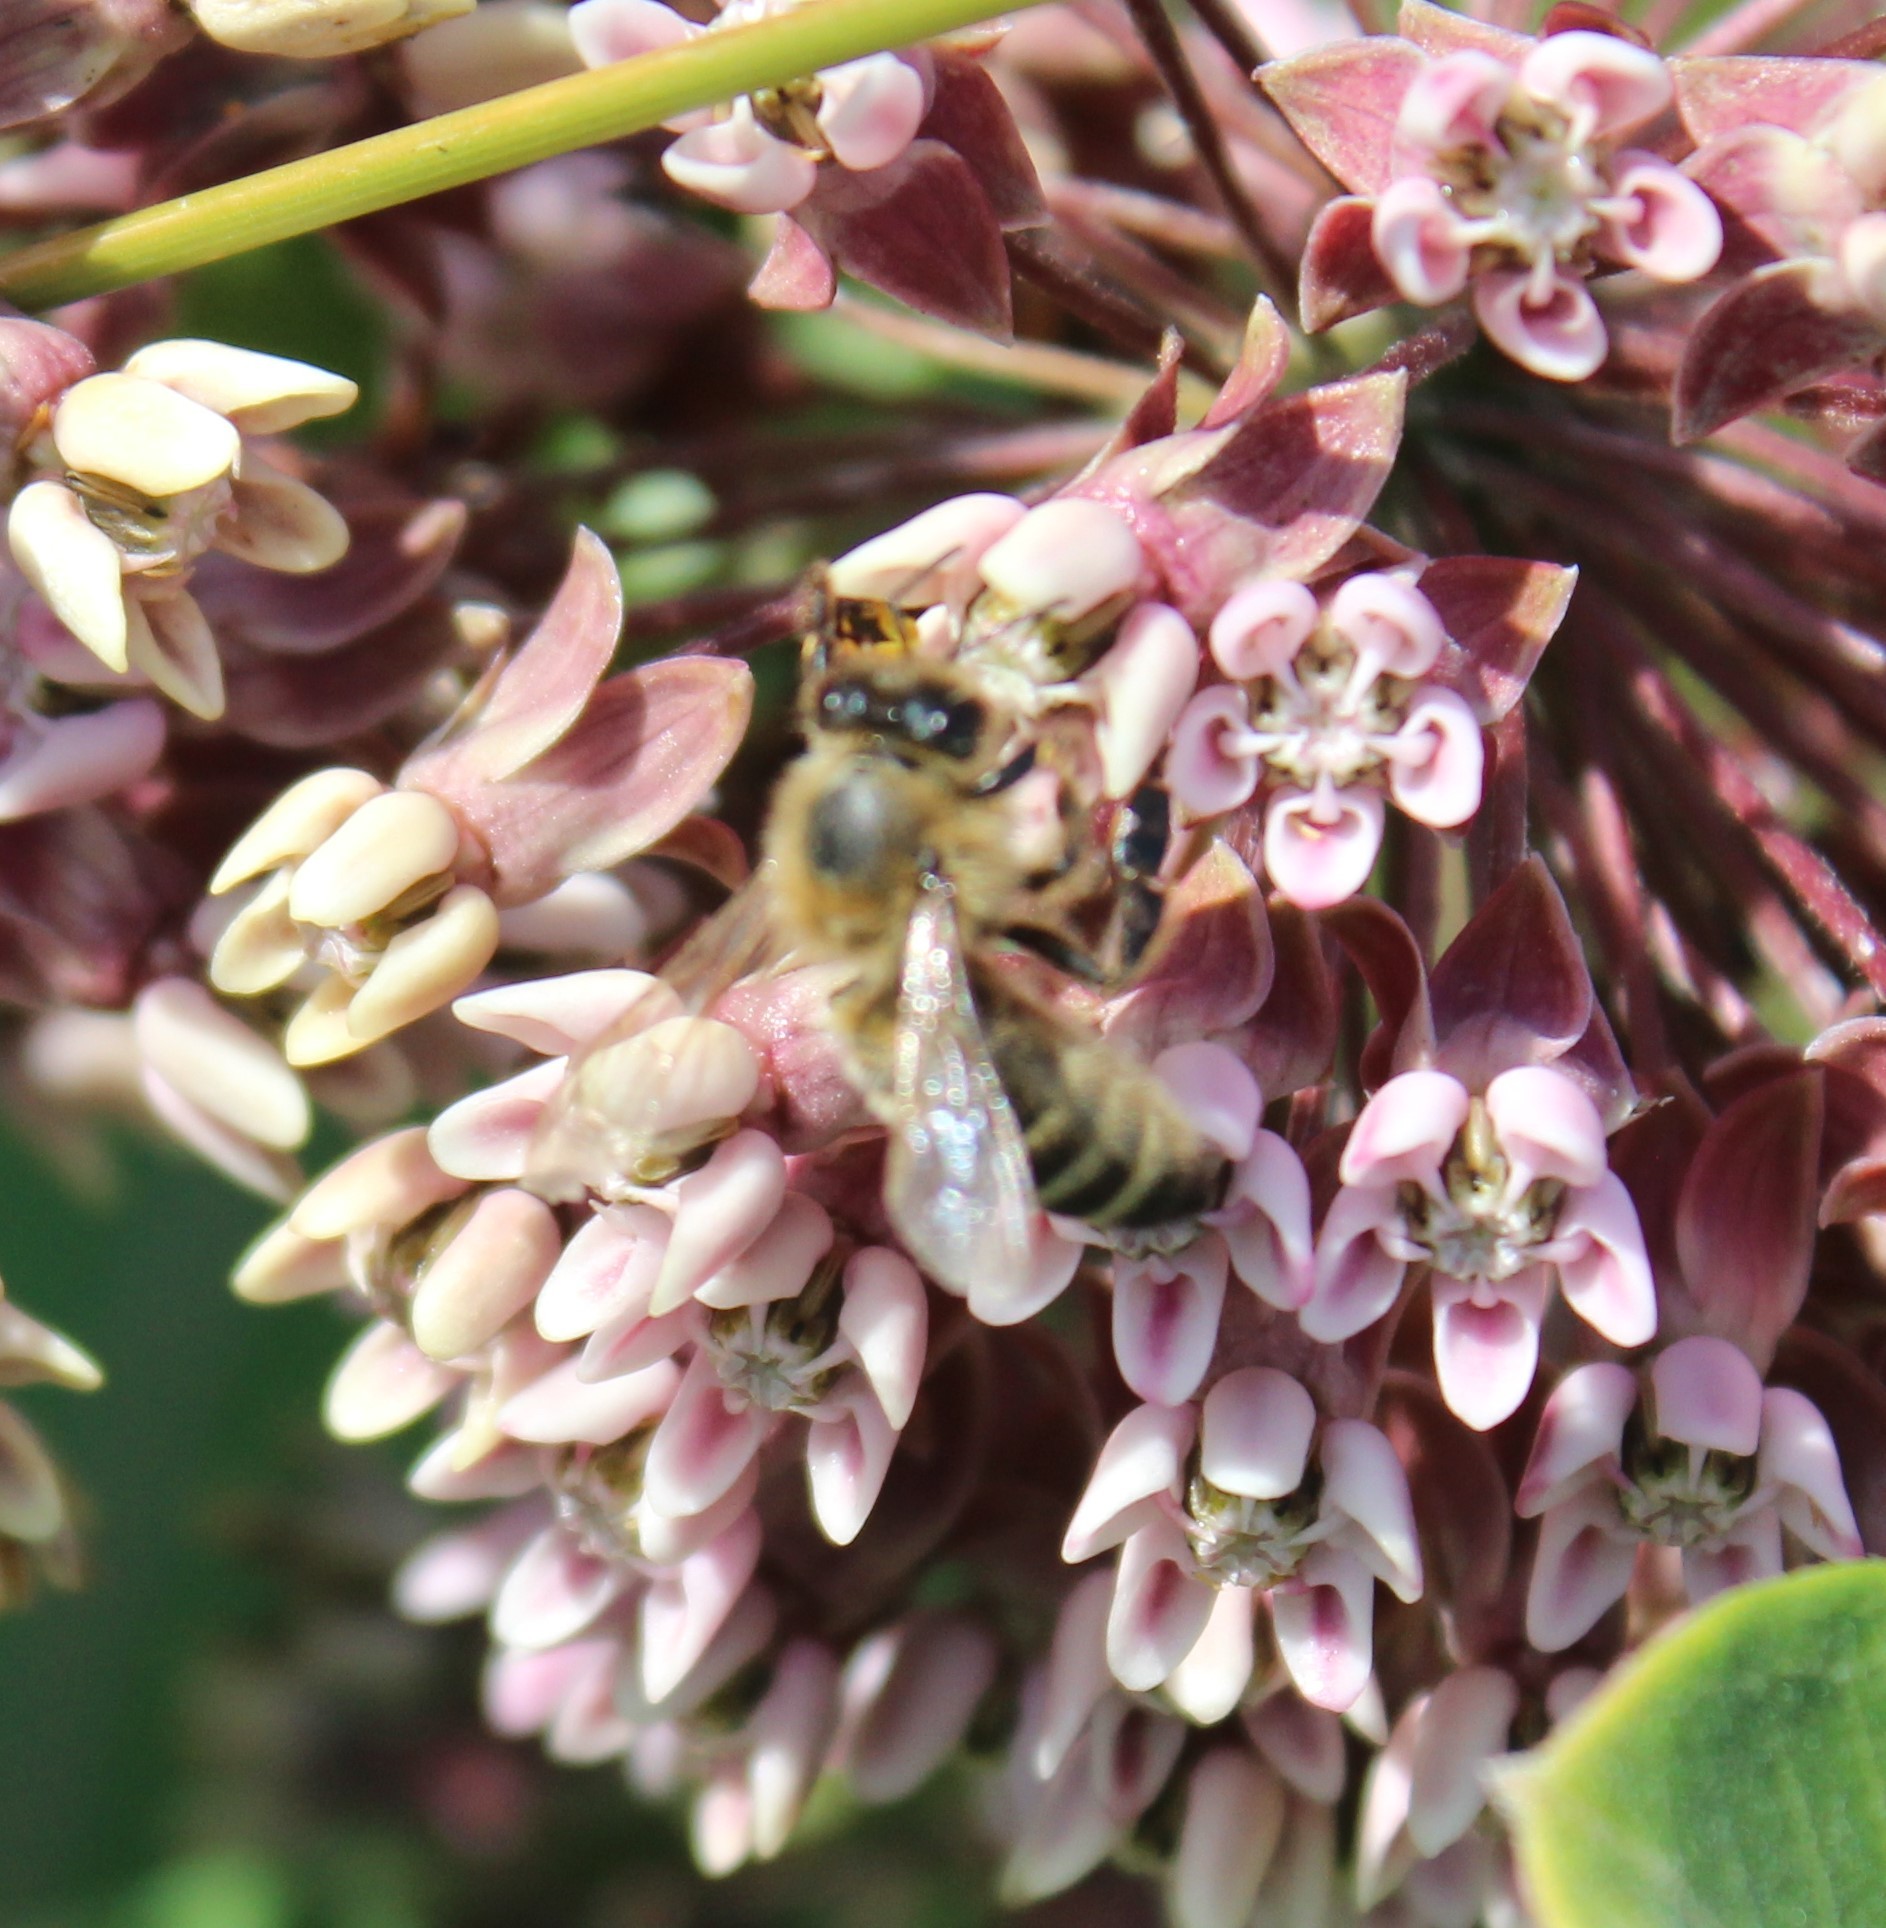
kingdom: Animalia
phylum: Arthropoda
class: Insecta
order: Hymenoptera
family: Apidae
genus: Apis
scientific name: Apis mellifera
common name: Honey bee
